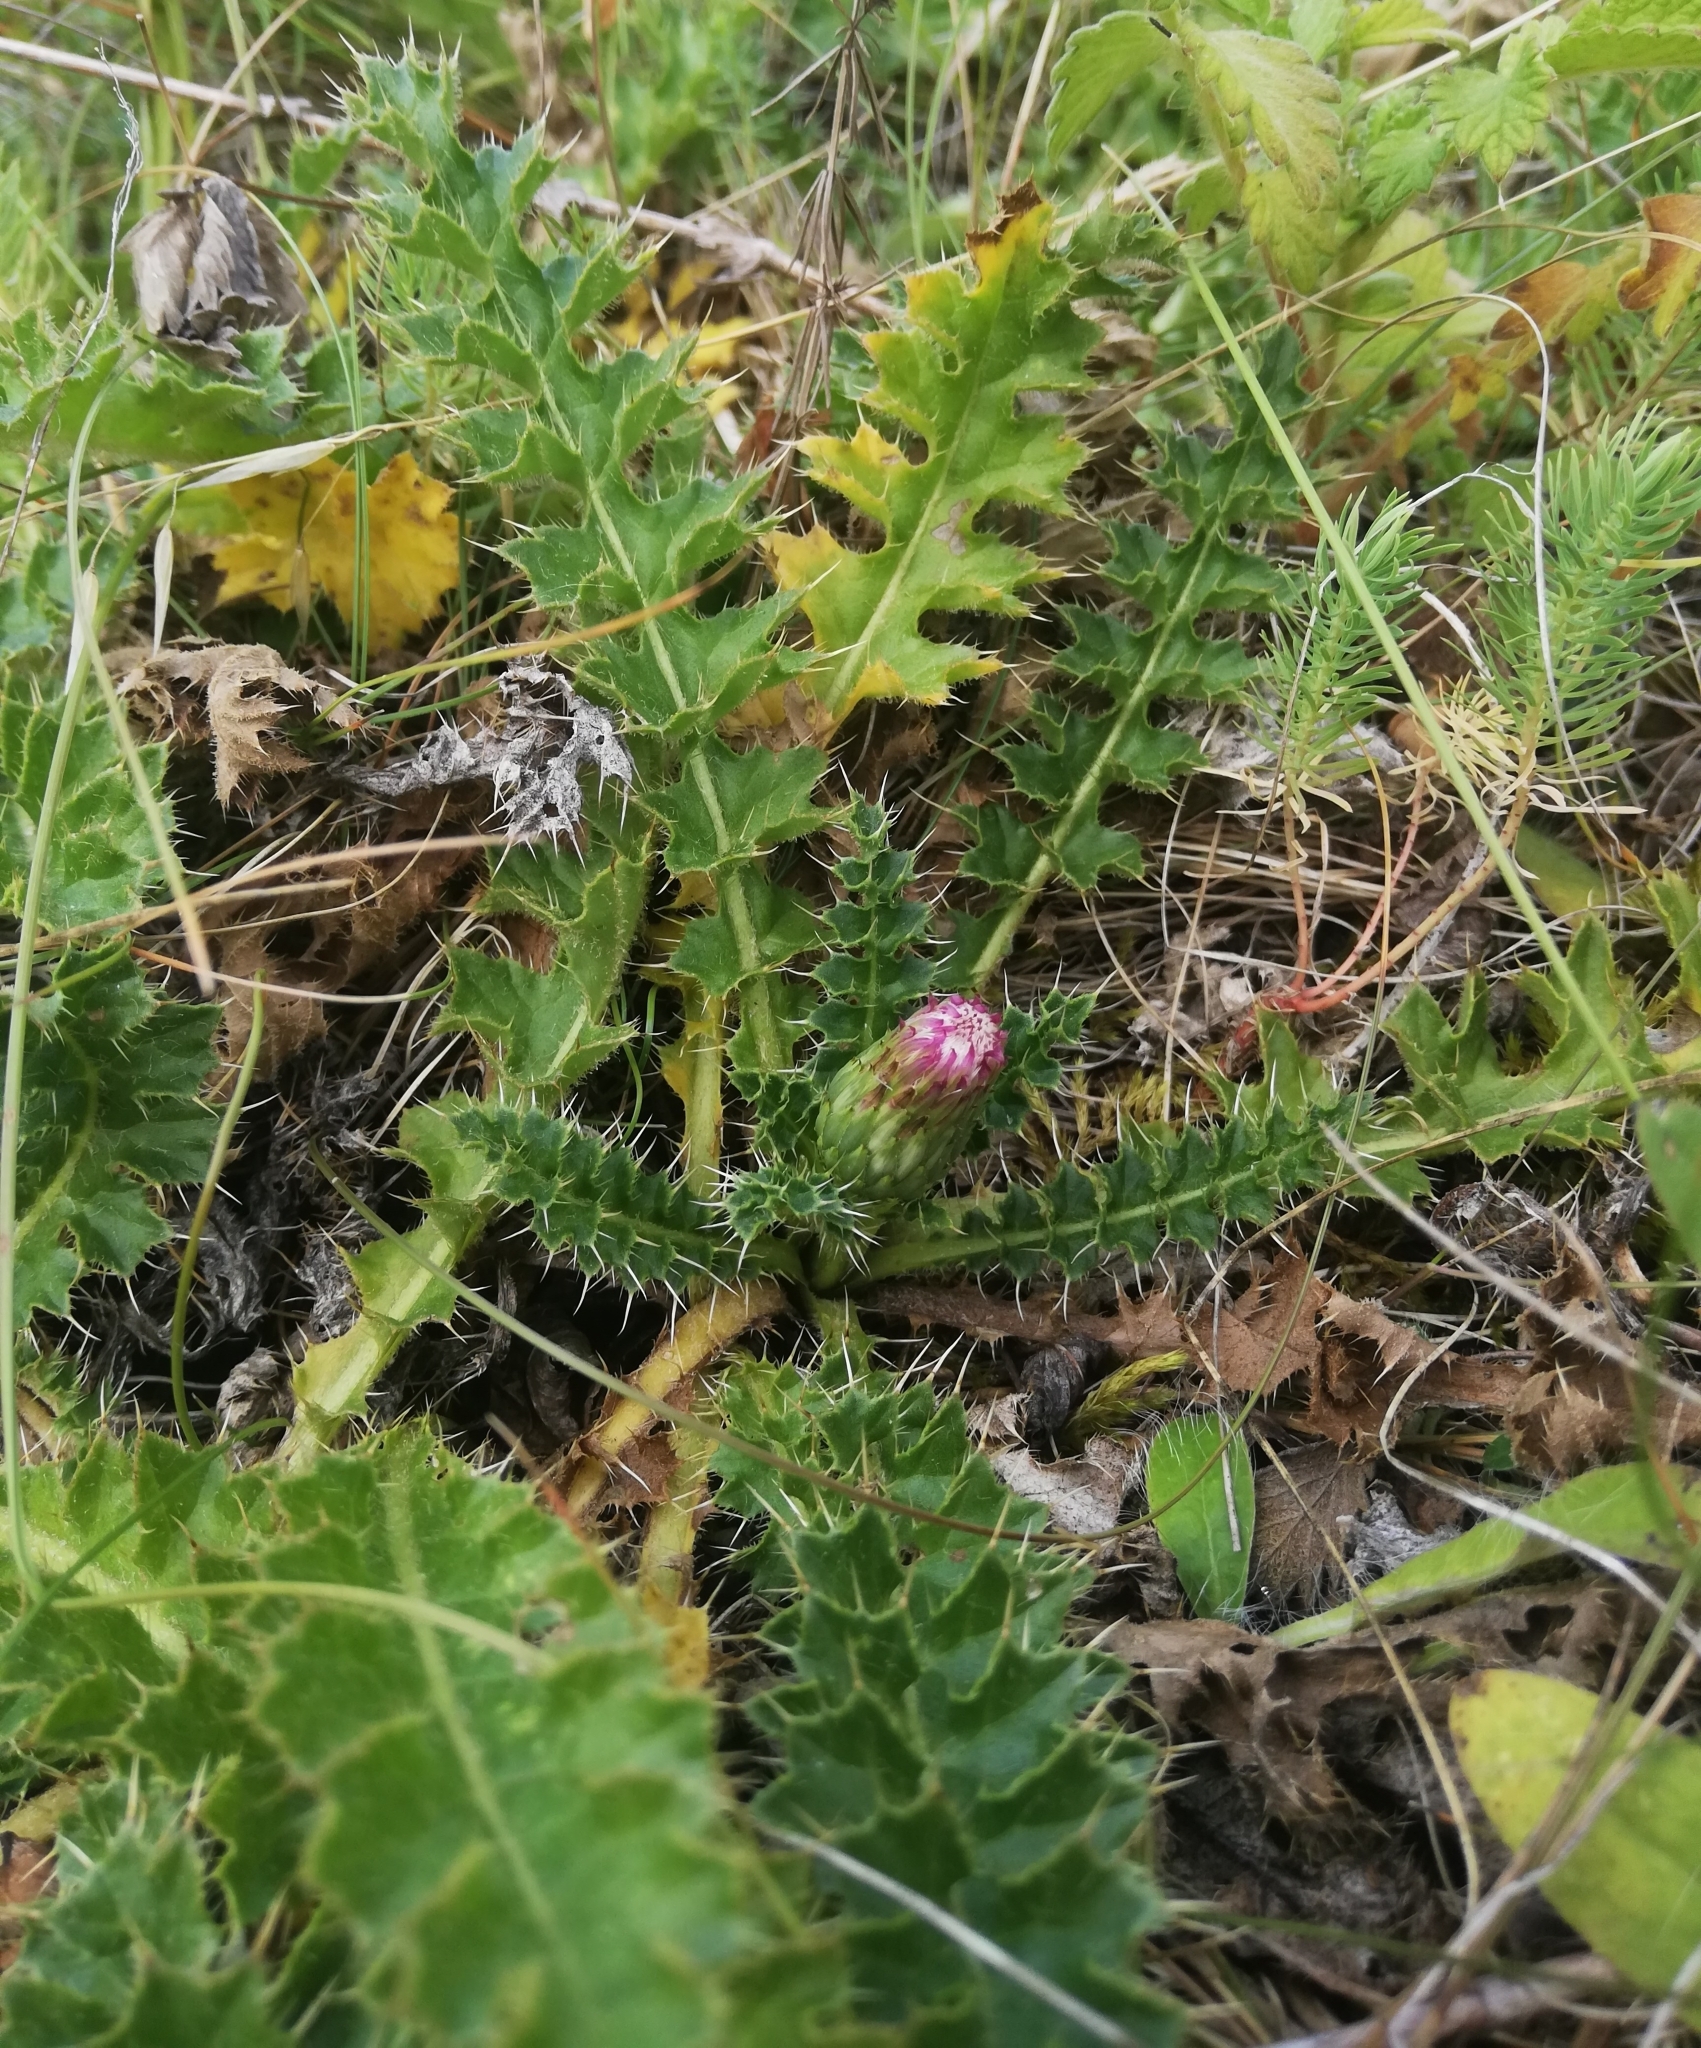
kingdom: Plantae
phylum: Tracheophyta
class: Magnoliopsida
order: Asterales
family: Asteraceae
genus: Cirsium
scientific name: Cirsium acaulon
